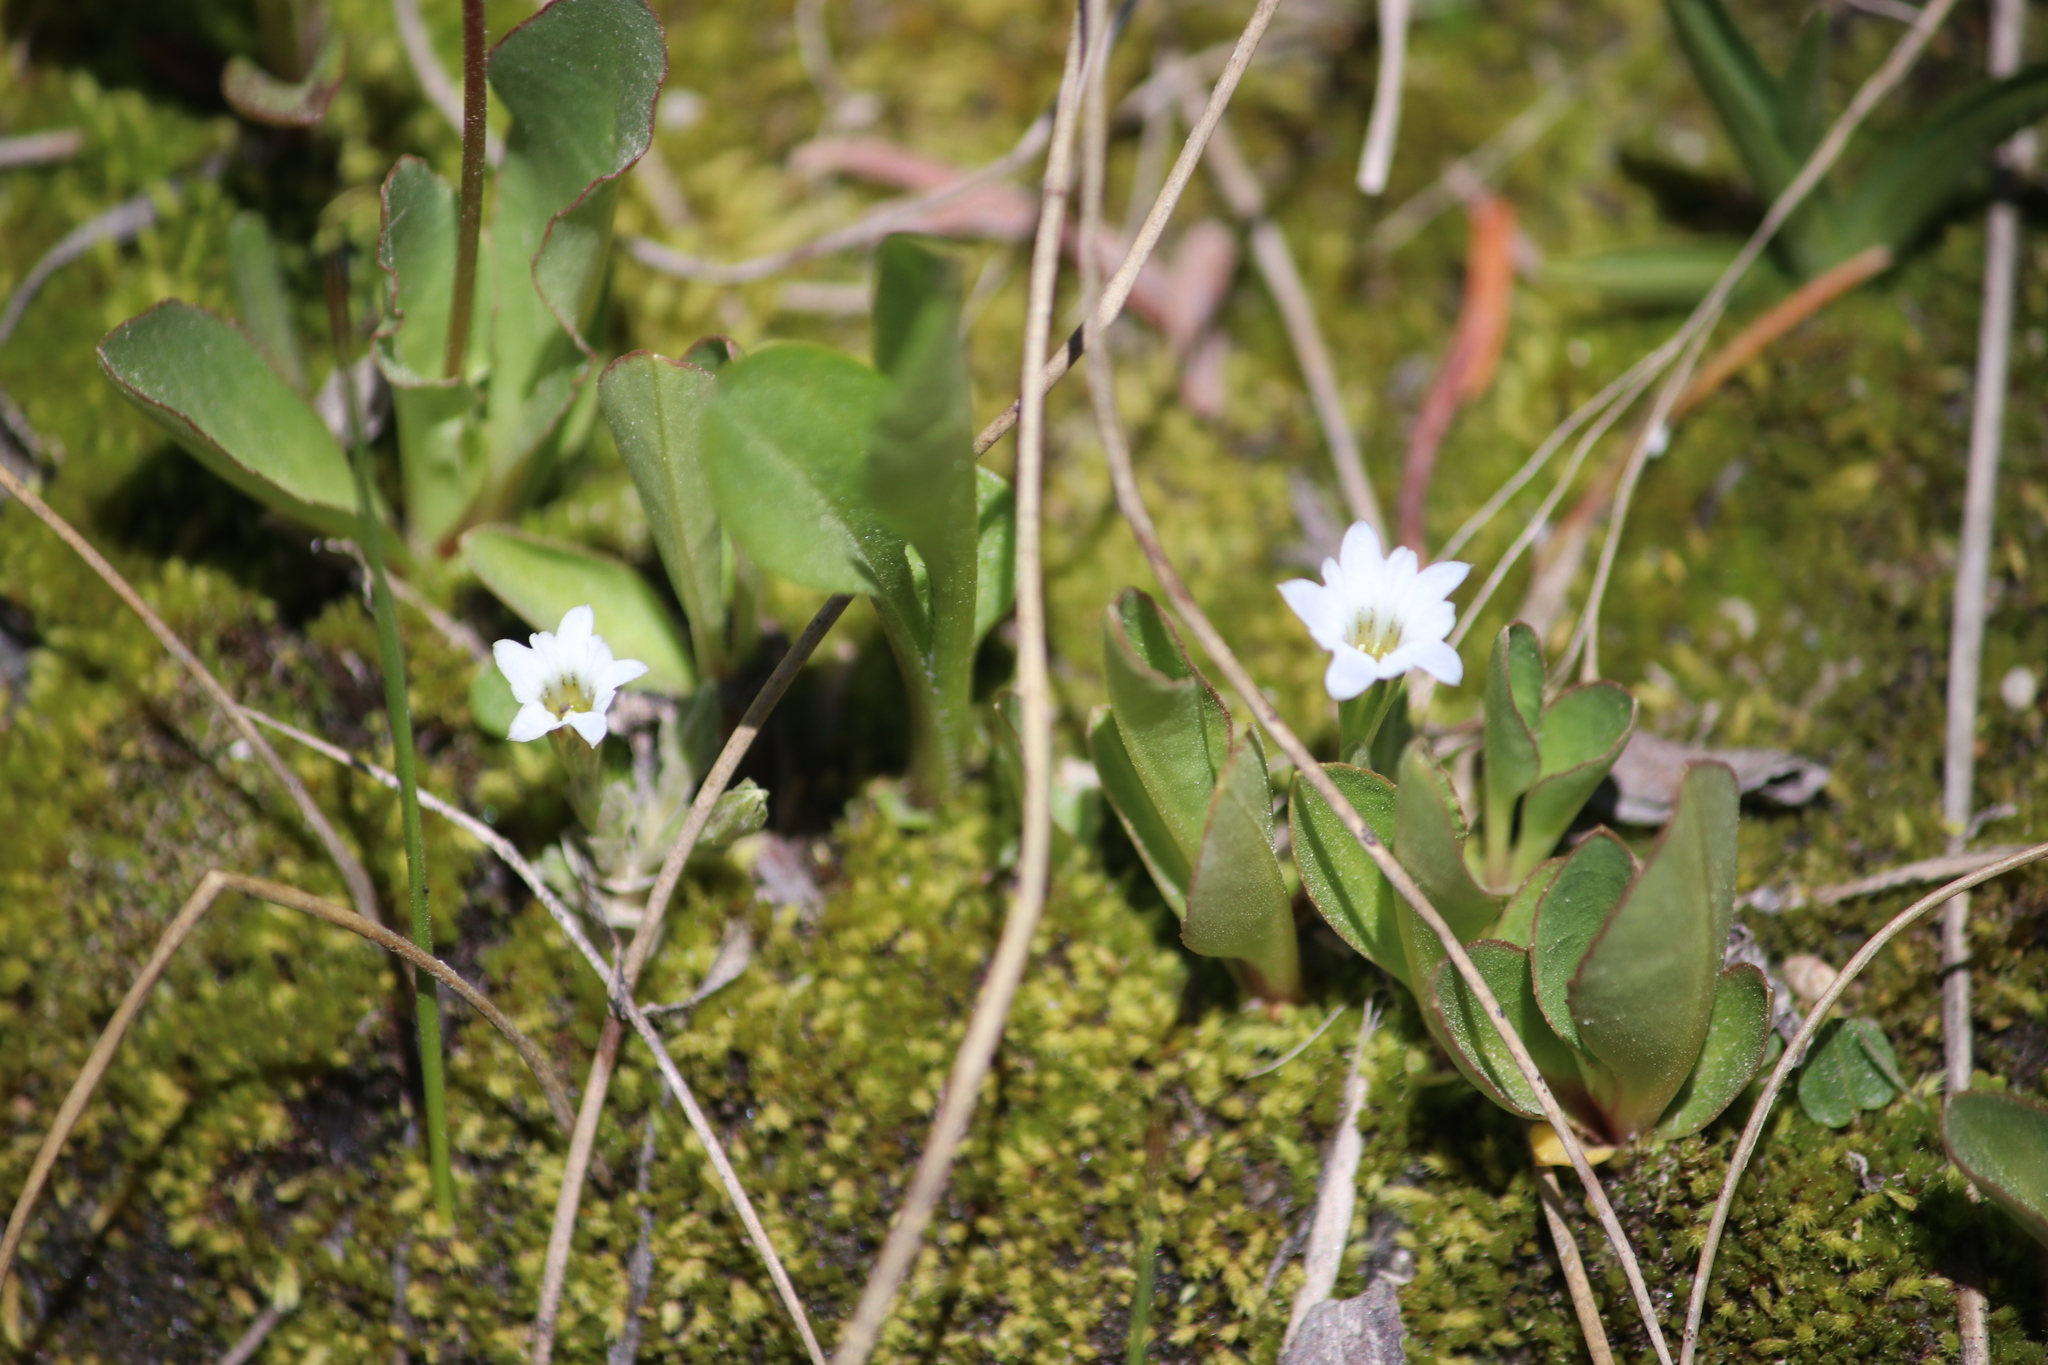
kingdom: Plantae
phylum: Tracheophyta
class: Magnoliopsida
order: Gentianales
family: Gentianaceae
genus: Gentiana
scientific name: Gentiana fremontii
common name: Fremont's gentian
